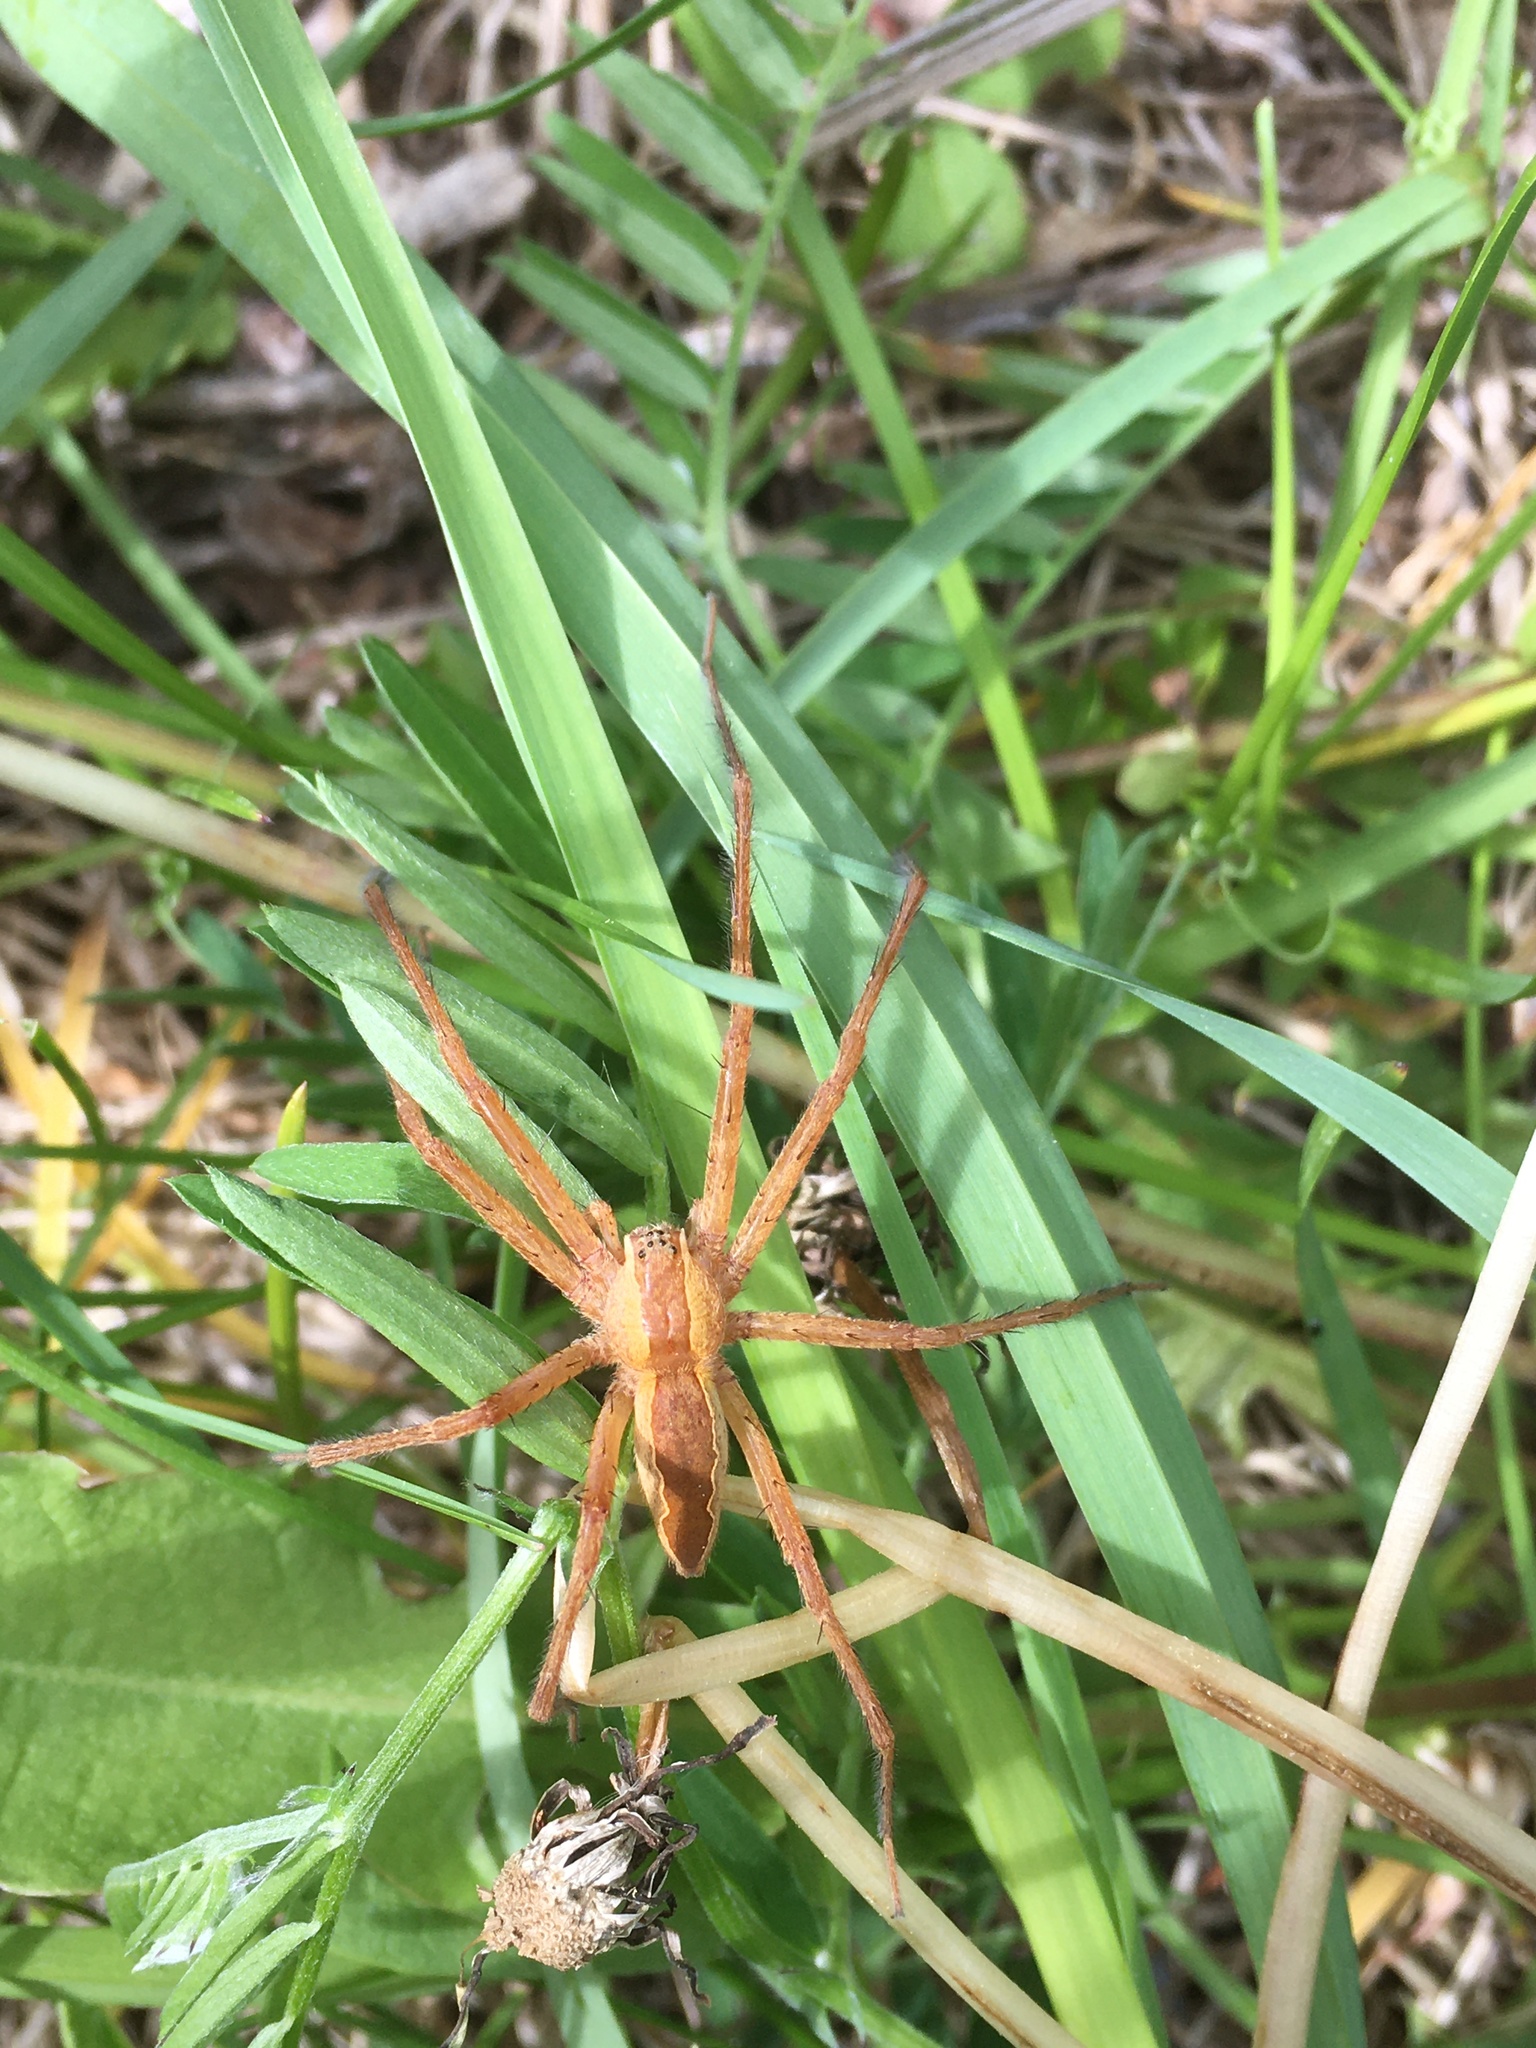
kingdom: Animalia
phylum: Arthropoda
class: Arachnida
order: Araneae
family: Pisauridae
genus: Pisaurina
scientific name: Pisaurina mira
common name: American nursery web spider
